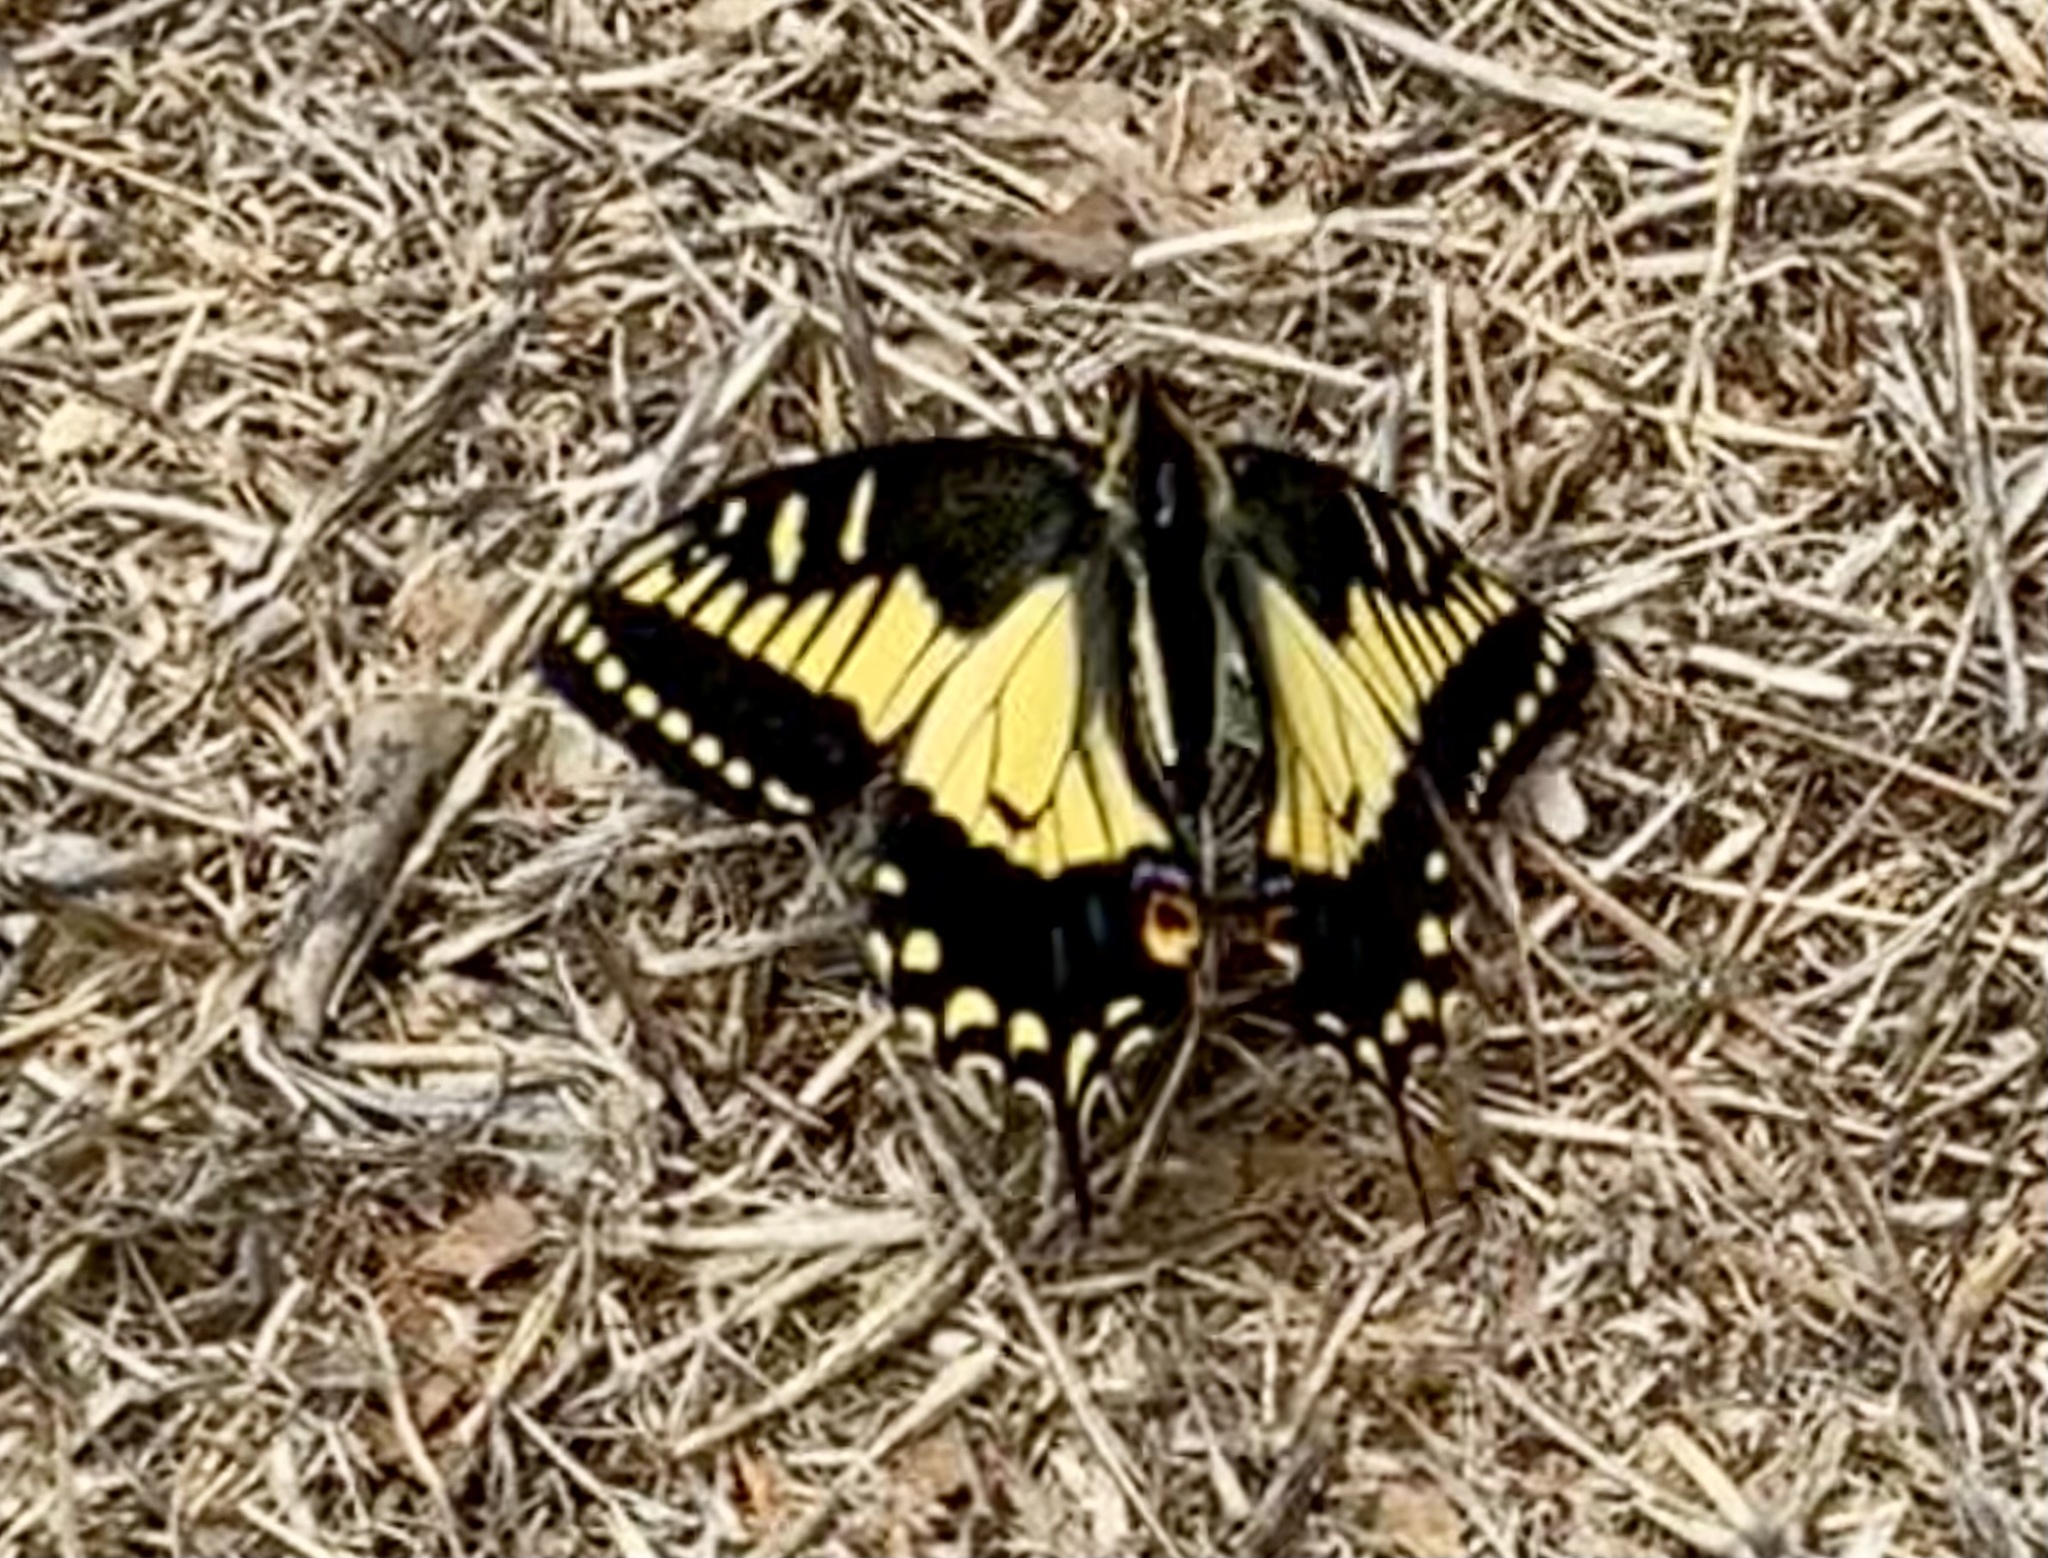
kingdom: Animalia
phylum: Arthropoda
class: Insecta
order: Lepidoptera
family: Papilionidae
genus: Papilio
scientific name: Papilio zelicaon
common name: Anise swallowtail
